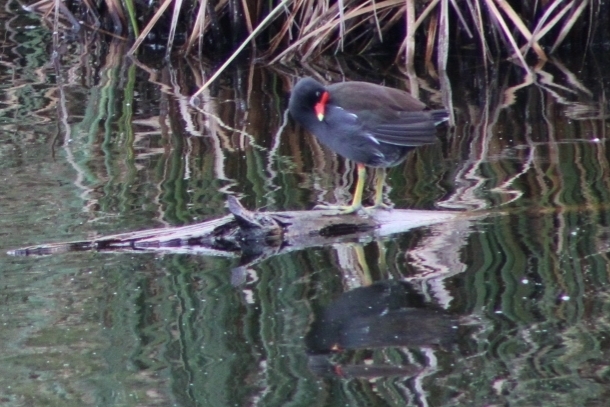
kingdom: Animalia
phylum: Chordata
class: Aves
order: Gruiformes
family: Rallidae
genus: Gallinula
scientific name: Gallinula chloropus
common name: Common moorhen
